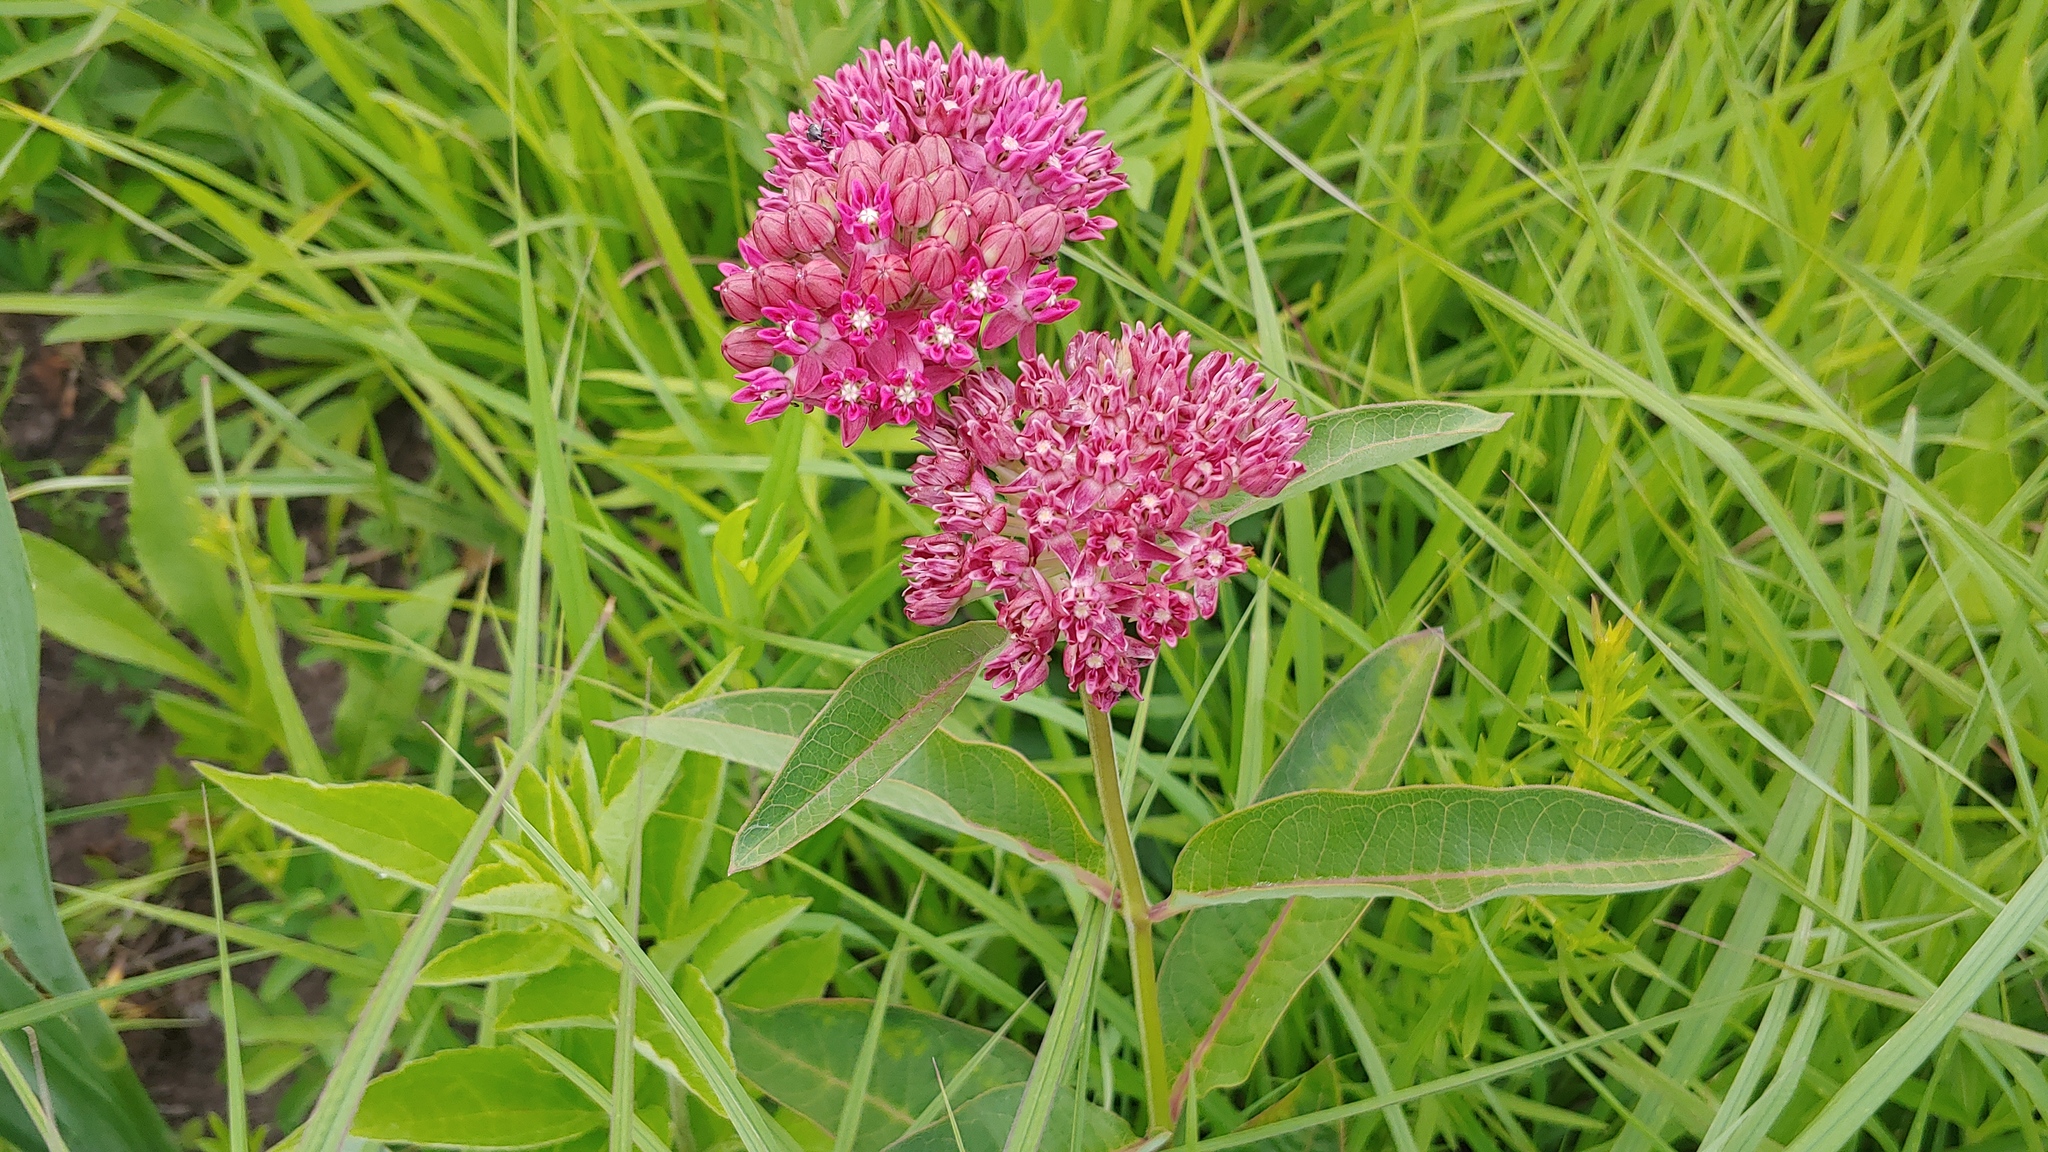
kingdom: Plantae
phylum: Tracheophyta
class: Magnoliopsida
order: Gentianales
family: Apocynaceae
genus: Asclepias
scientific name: Asclepias purpurascens
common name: Purple milkweed
